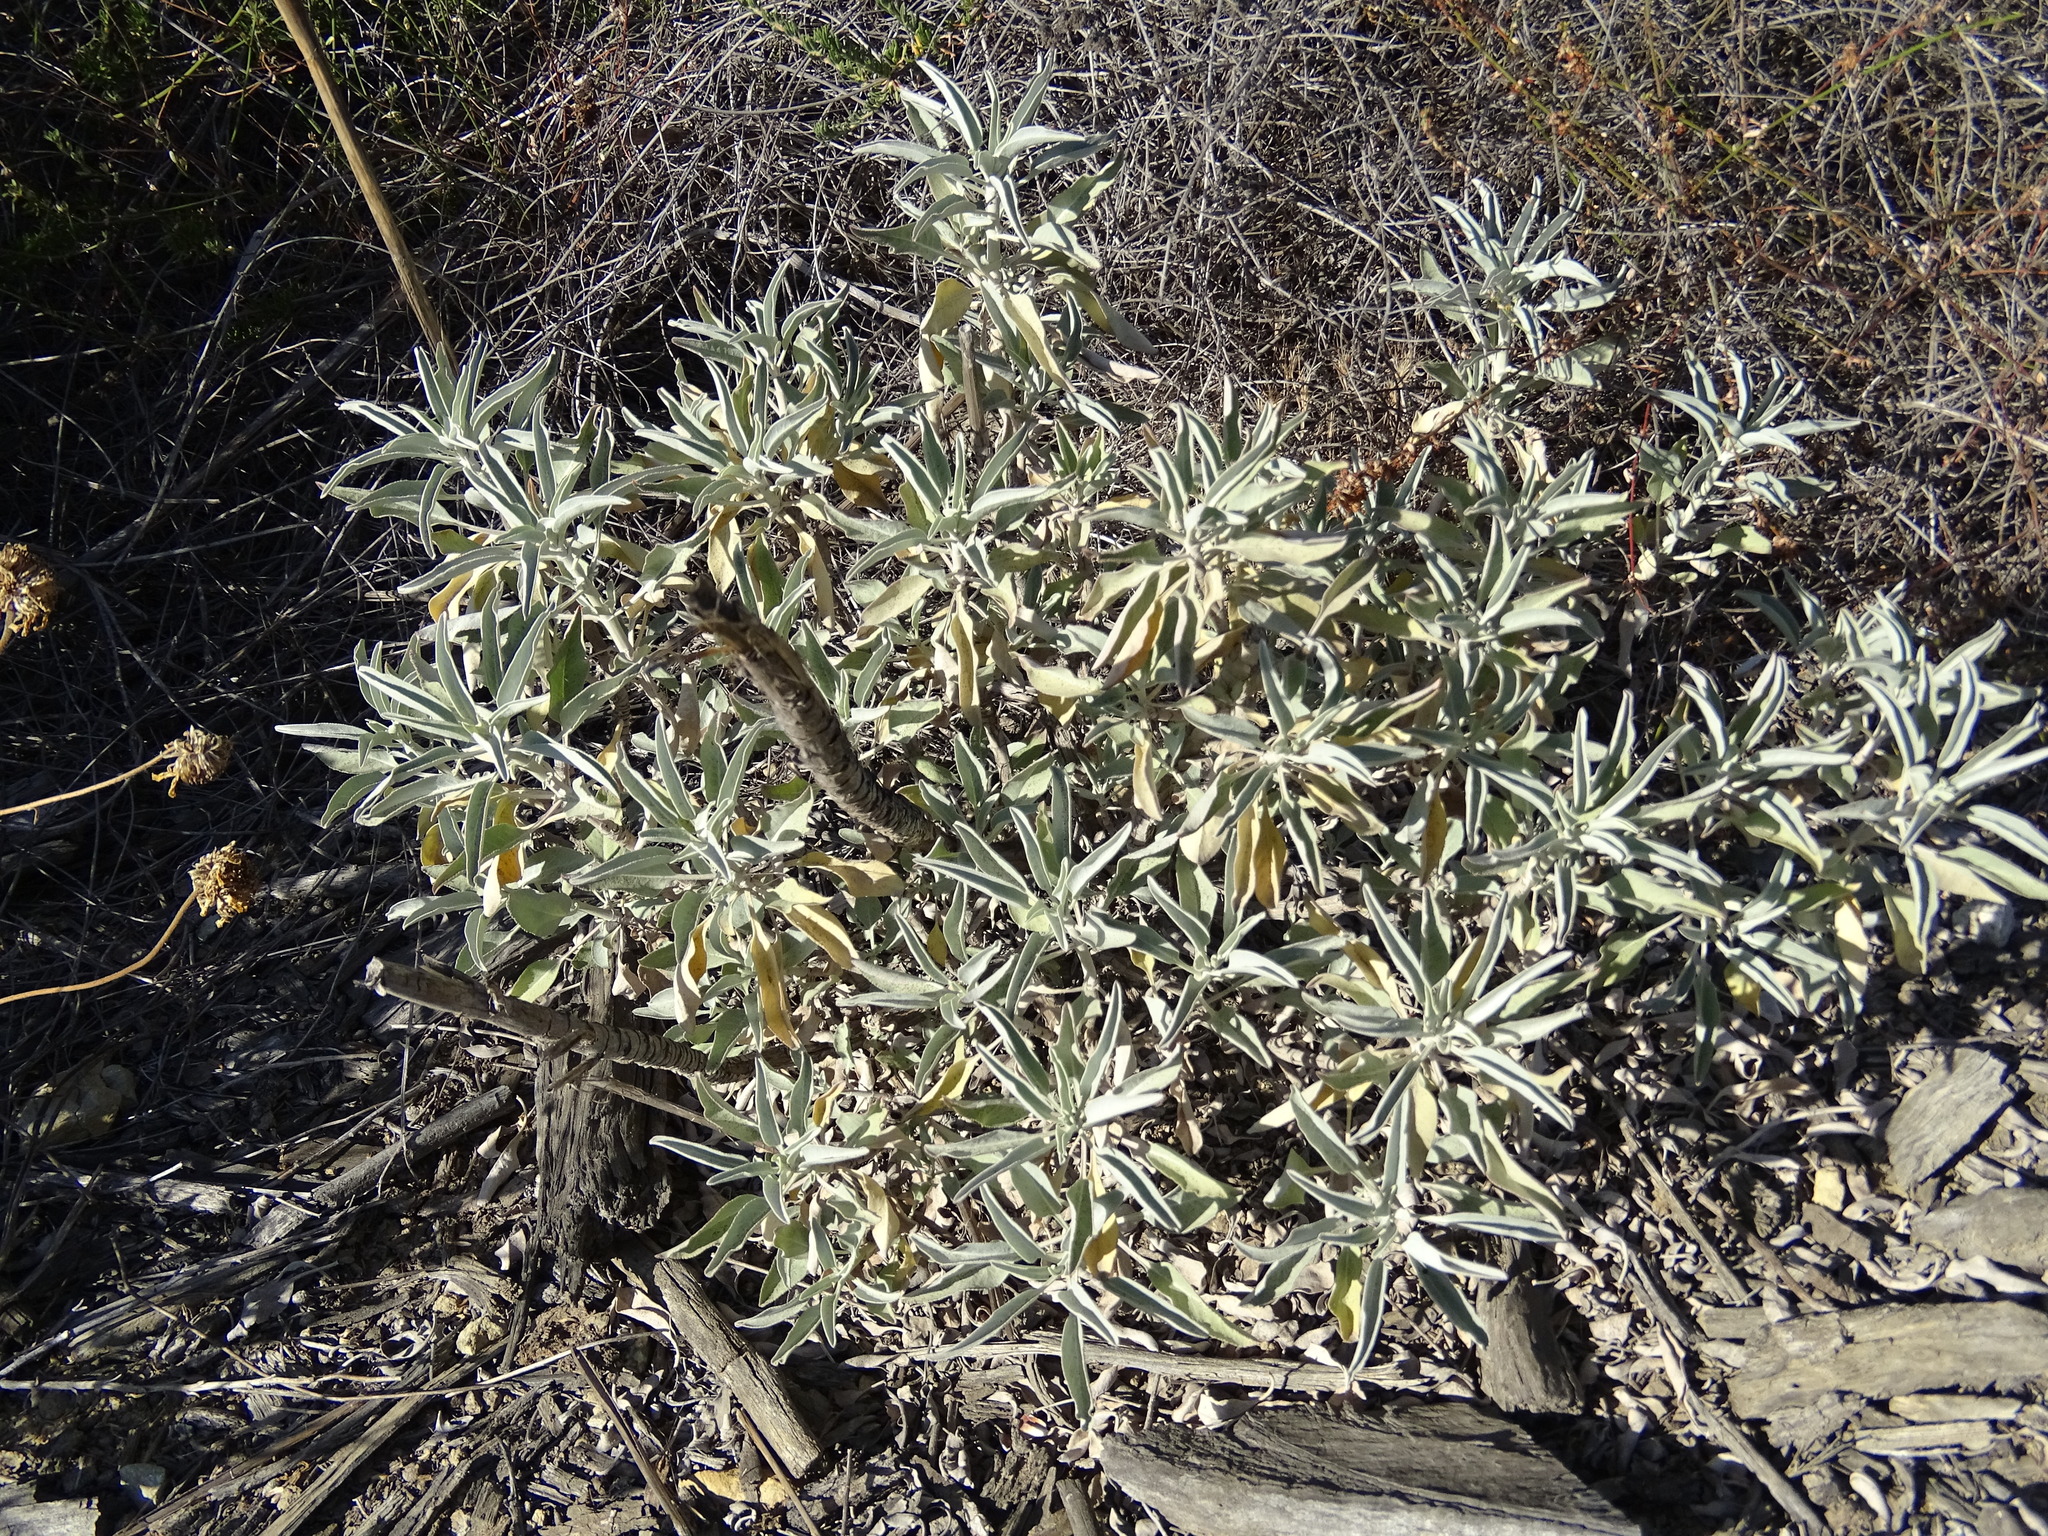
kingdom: Plantae
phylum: Tracheophyta
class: Magnoliopsida
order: Lamiales
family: Lamiaceae
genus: Salvia
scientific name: Salvia apiana
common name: White sage
